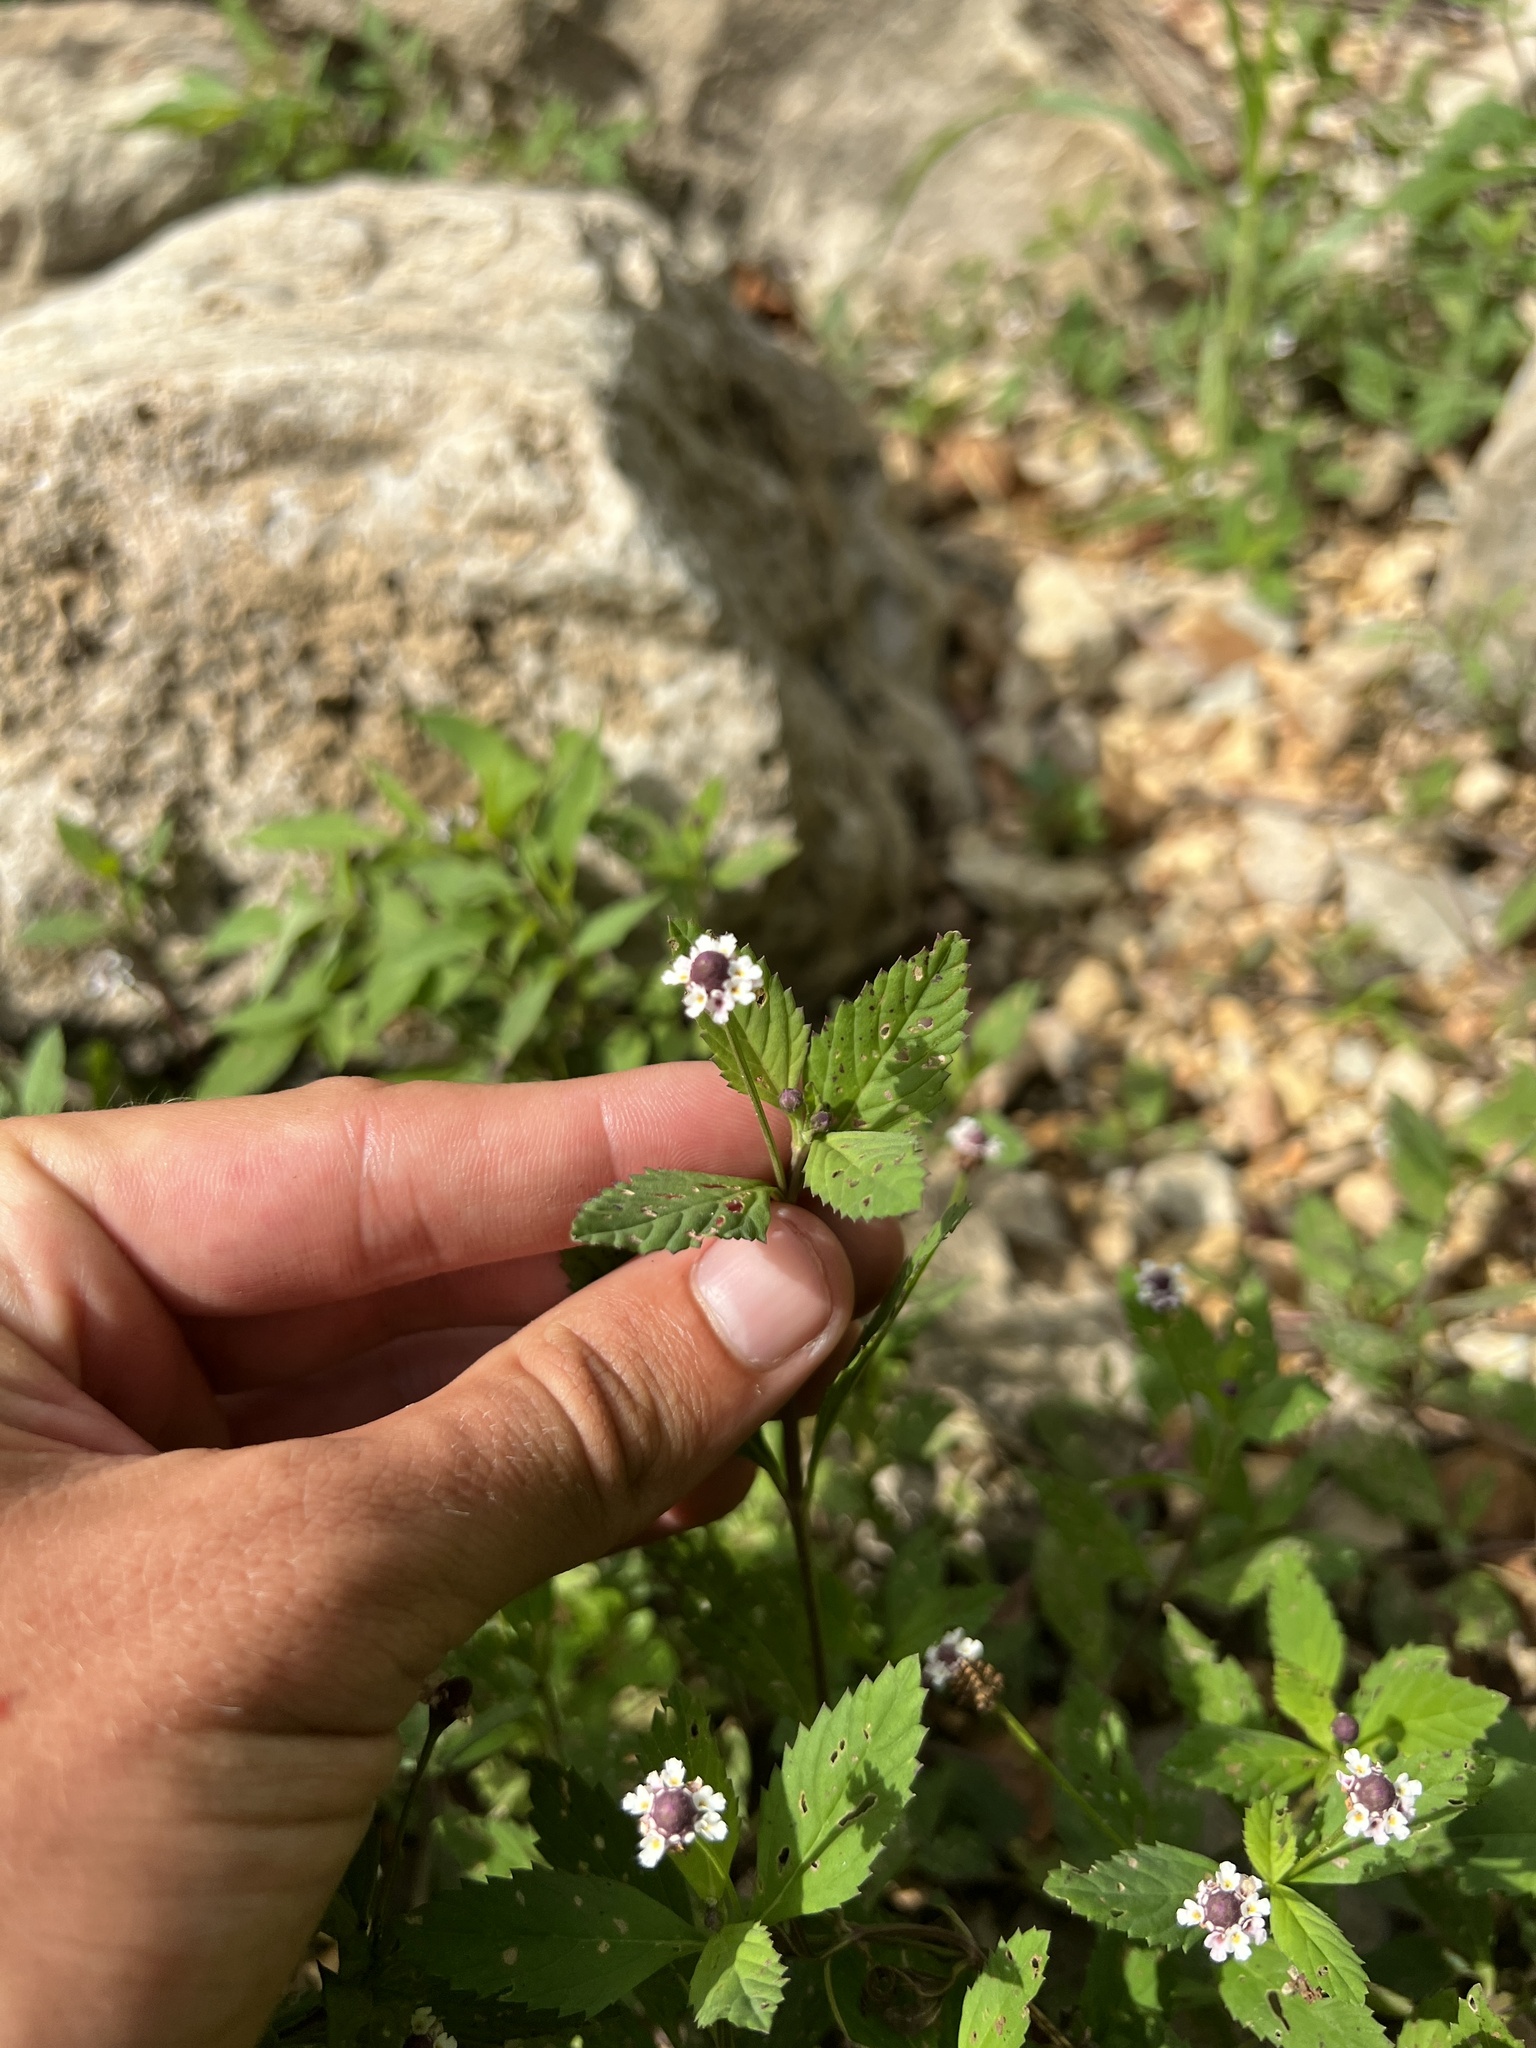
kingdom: Plantae
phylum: Tracheophyta
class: Magnoliopsida
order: Lamiales
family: Verbenaceae
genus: Phyla
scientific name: Phyla lanceolata
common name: Northern fogfruit
